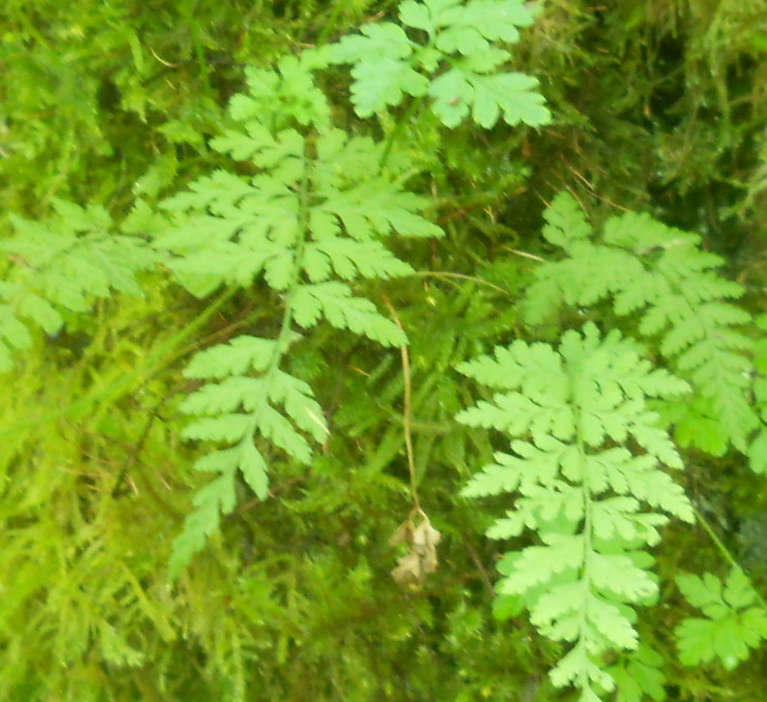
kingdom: Plantae
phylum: Tracheophyta
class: Polypodiopsida
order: Polypodiales
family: Cystopteridaceae
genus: Cystopteris
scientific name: Cystopteris fragilis
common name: Brittle bladder fern
